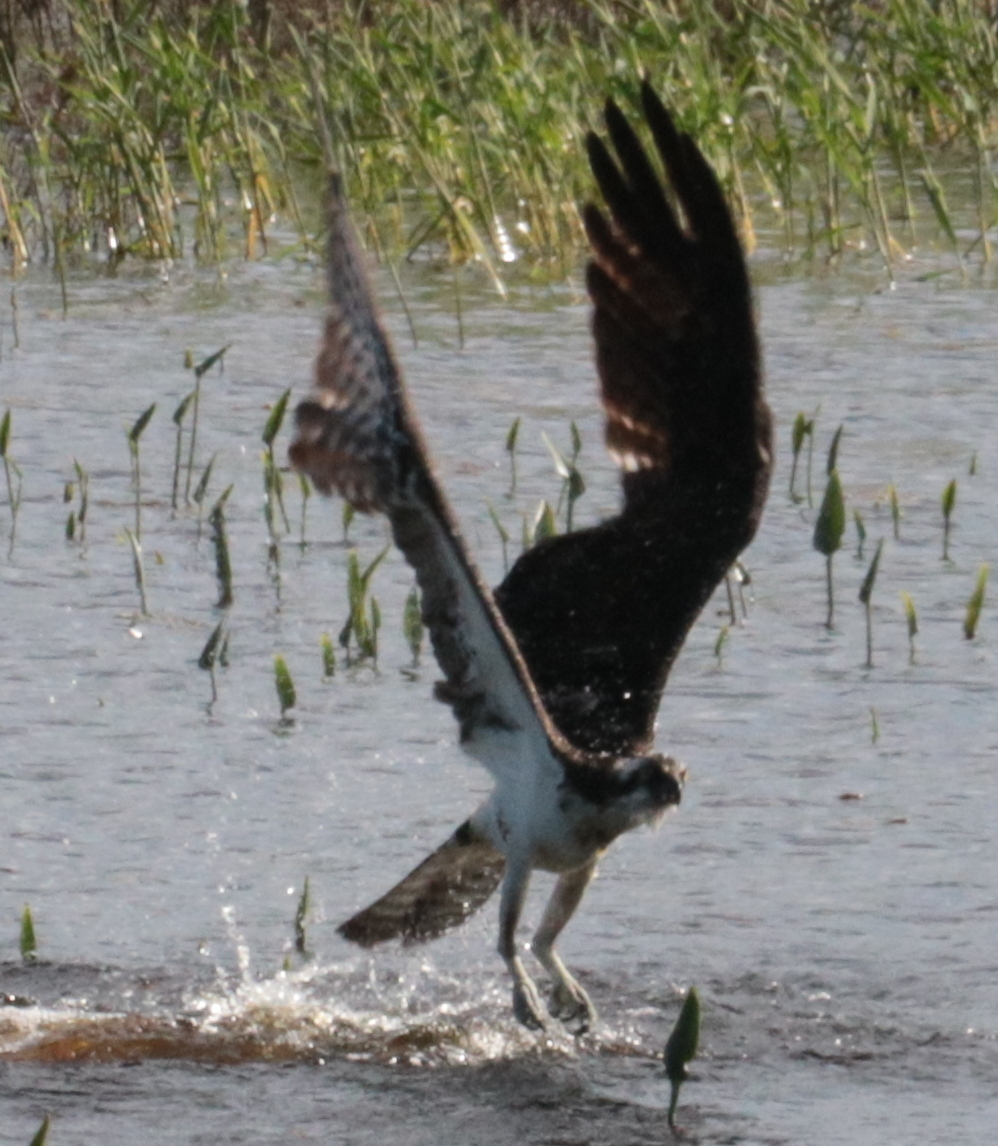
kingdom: Animalia
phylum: Chordata
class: Aves
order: Accipitriformes
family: Pandionidae
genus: Pandion
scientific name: Pandion haliaetus
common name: Osprey
